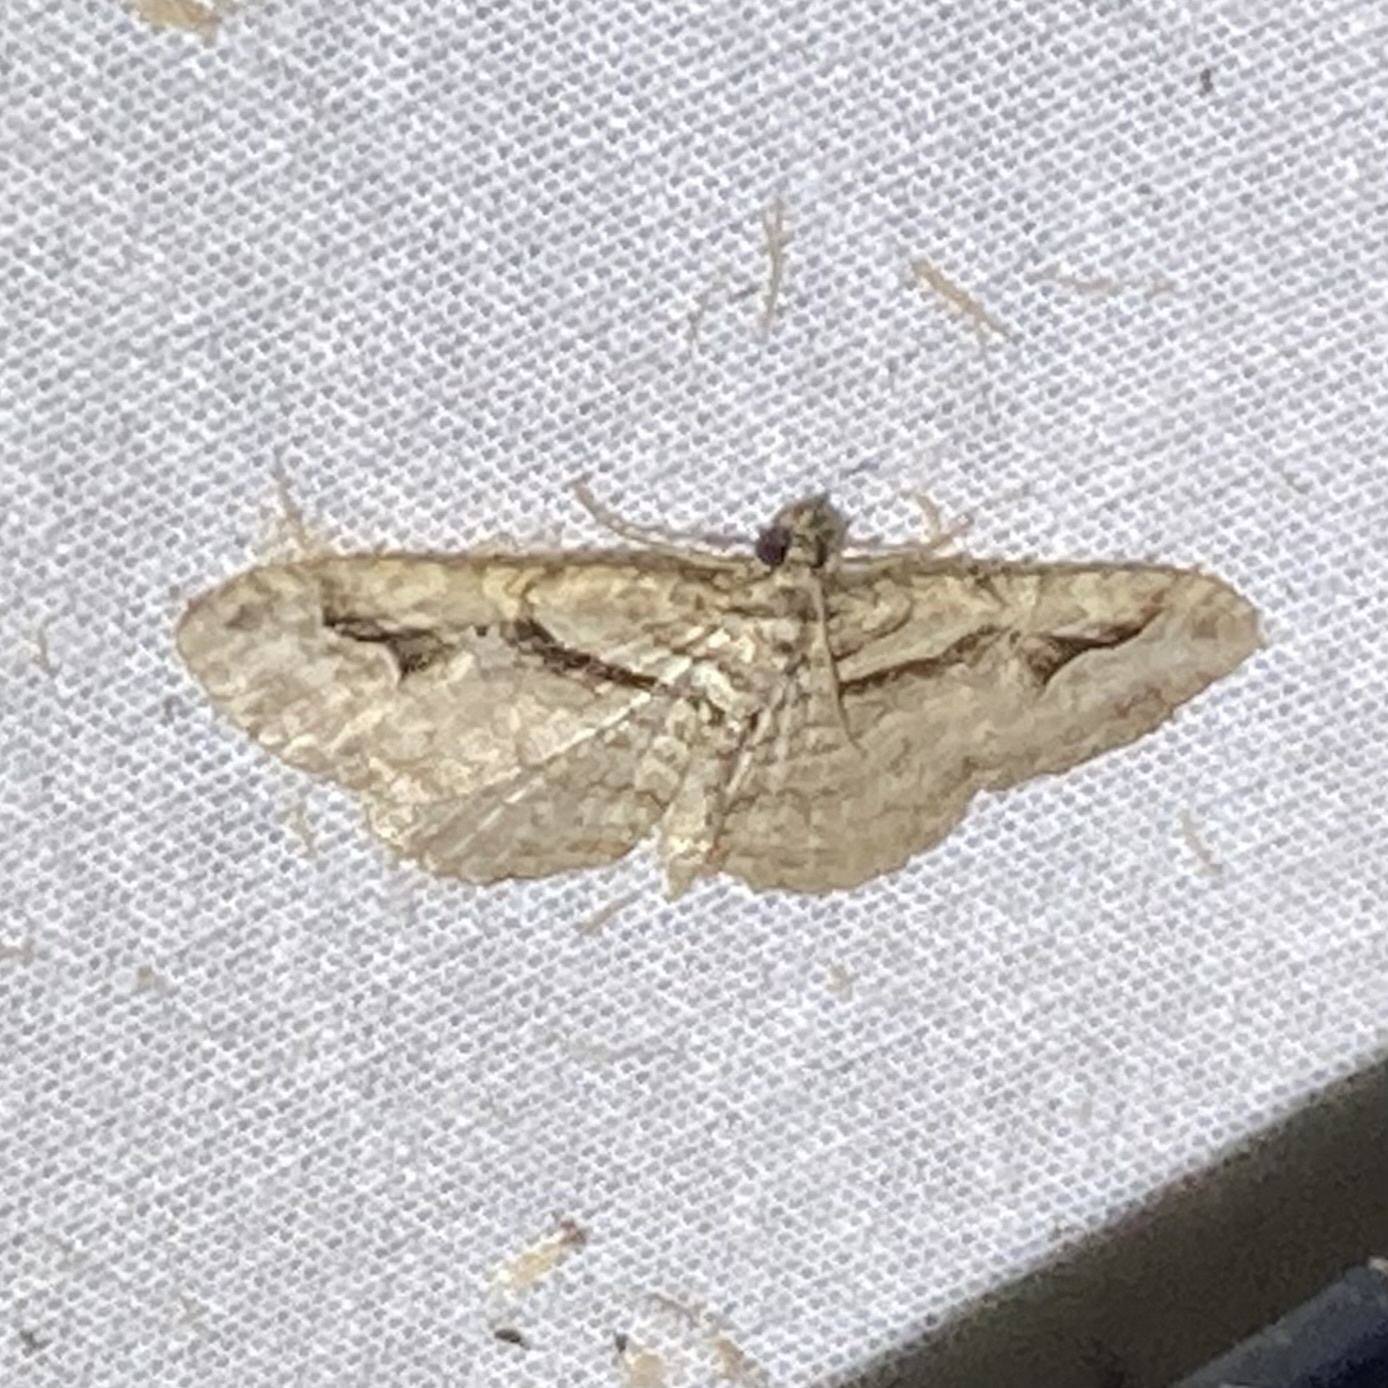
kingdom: Animalia
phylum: Arthropoda
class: Insecta
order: Lepidoptera
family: Geometridae
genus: Costaconvexa
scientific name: Costaconvexa centrostrigaria
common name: Bent-line carpet
